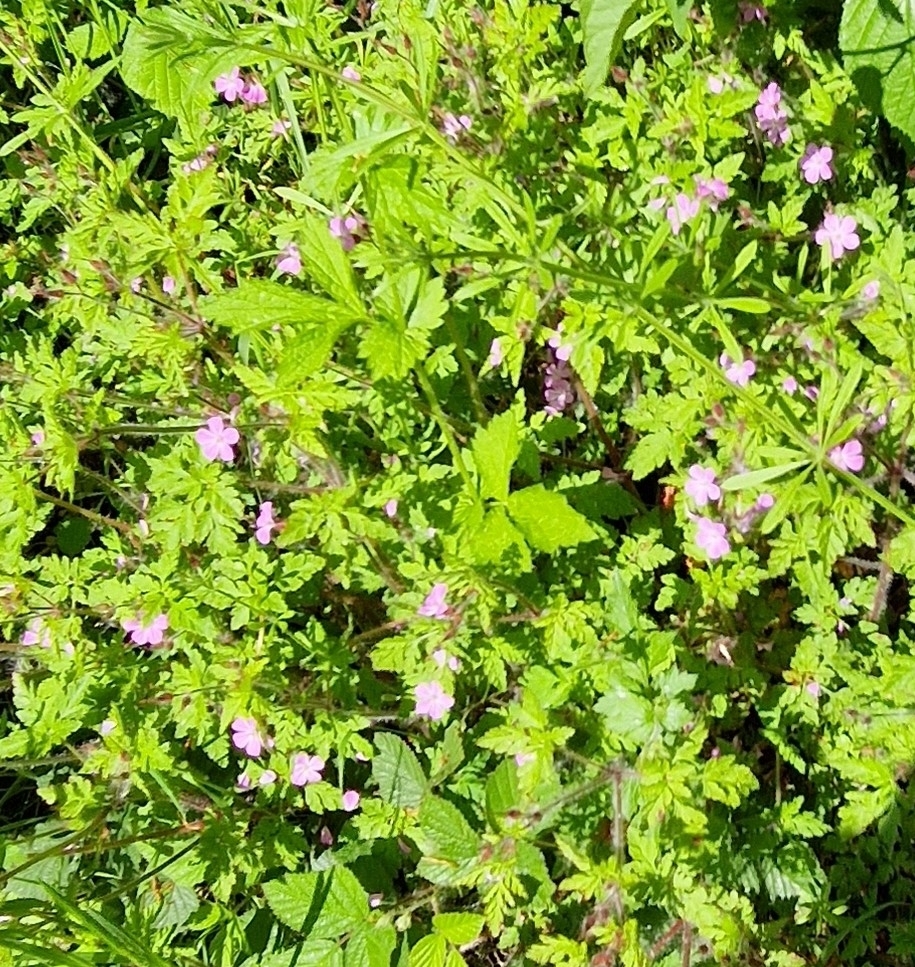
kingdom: Plantae
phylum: Tracheophyta
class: Magnoliopsida
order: Geraniales
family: Geraniaceae
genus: Geranium
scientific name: Geranium robertianum
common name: Herb-robert
